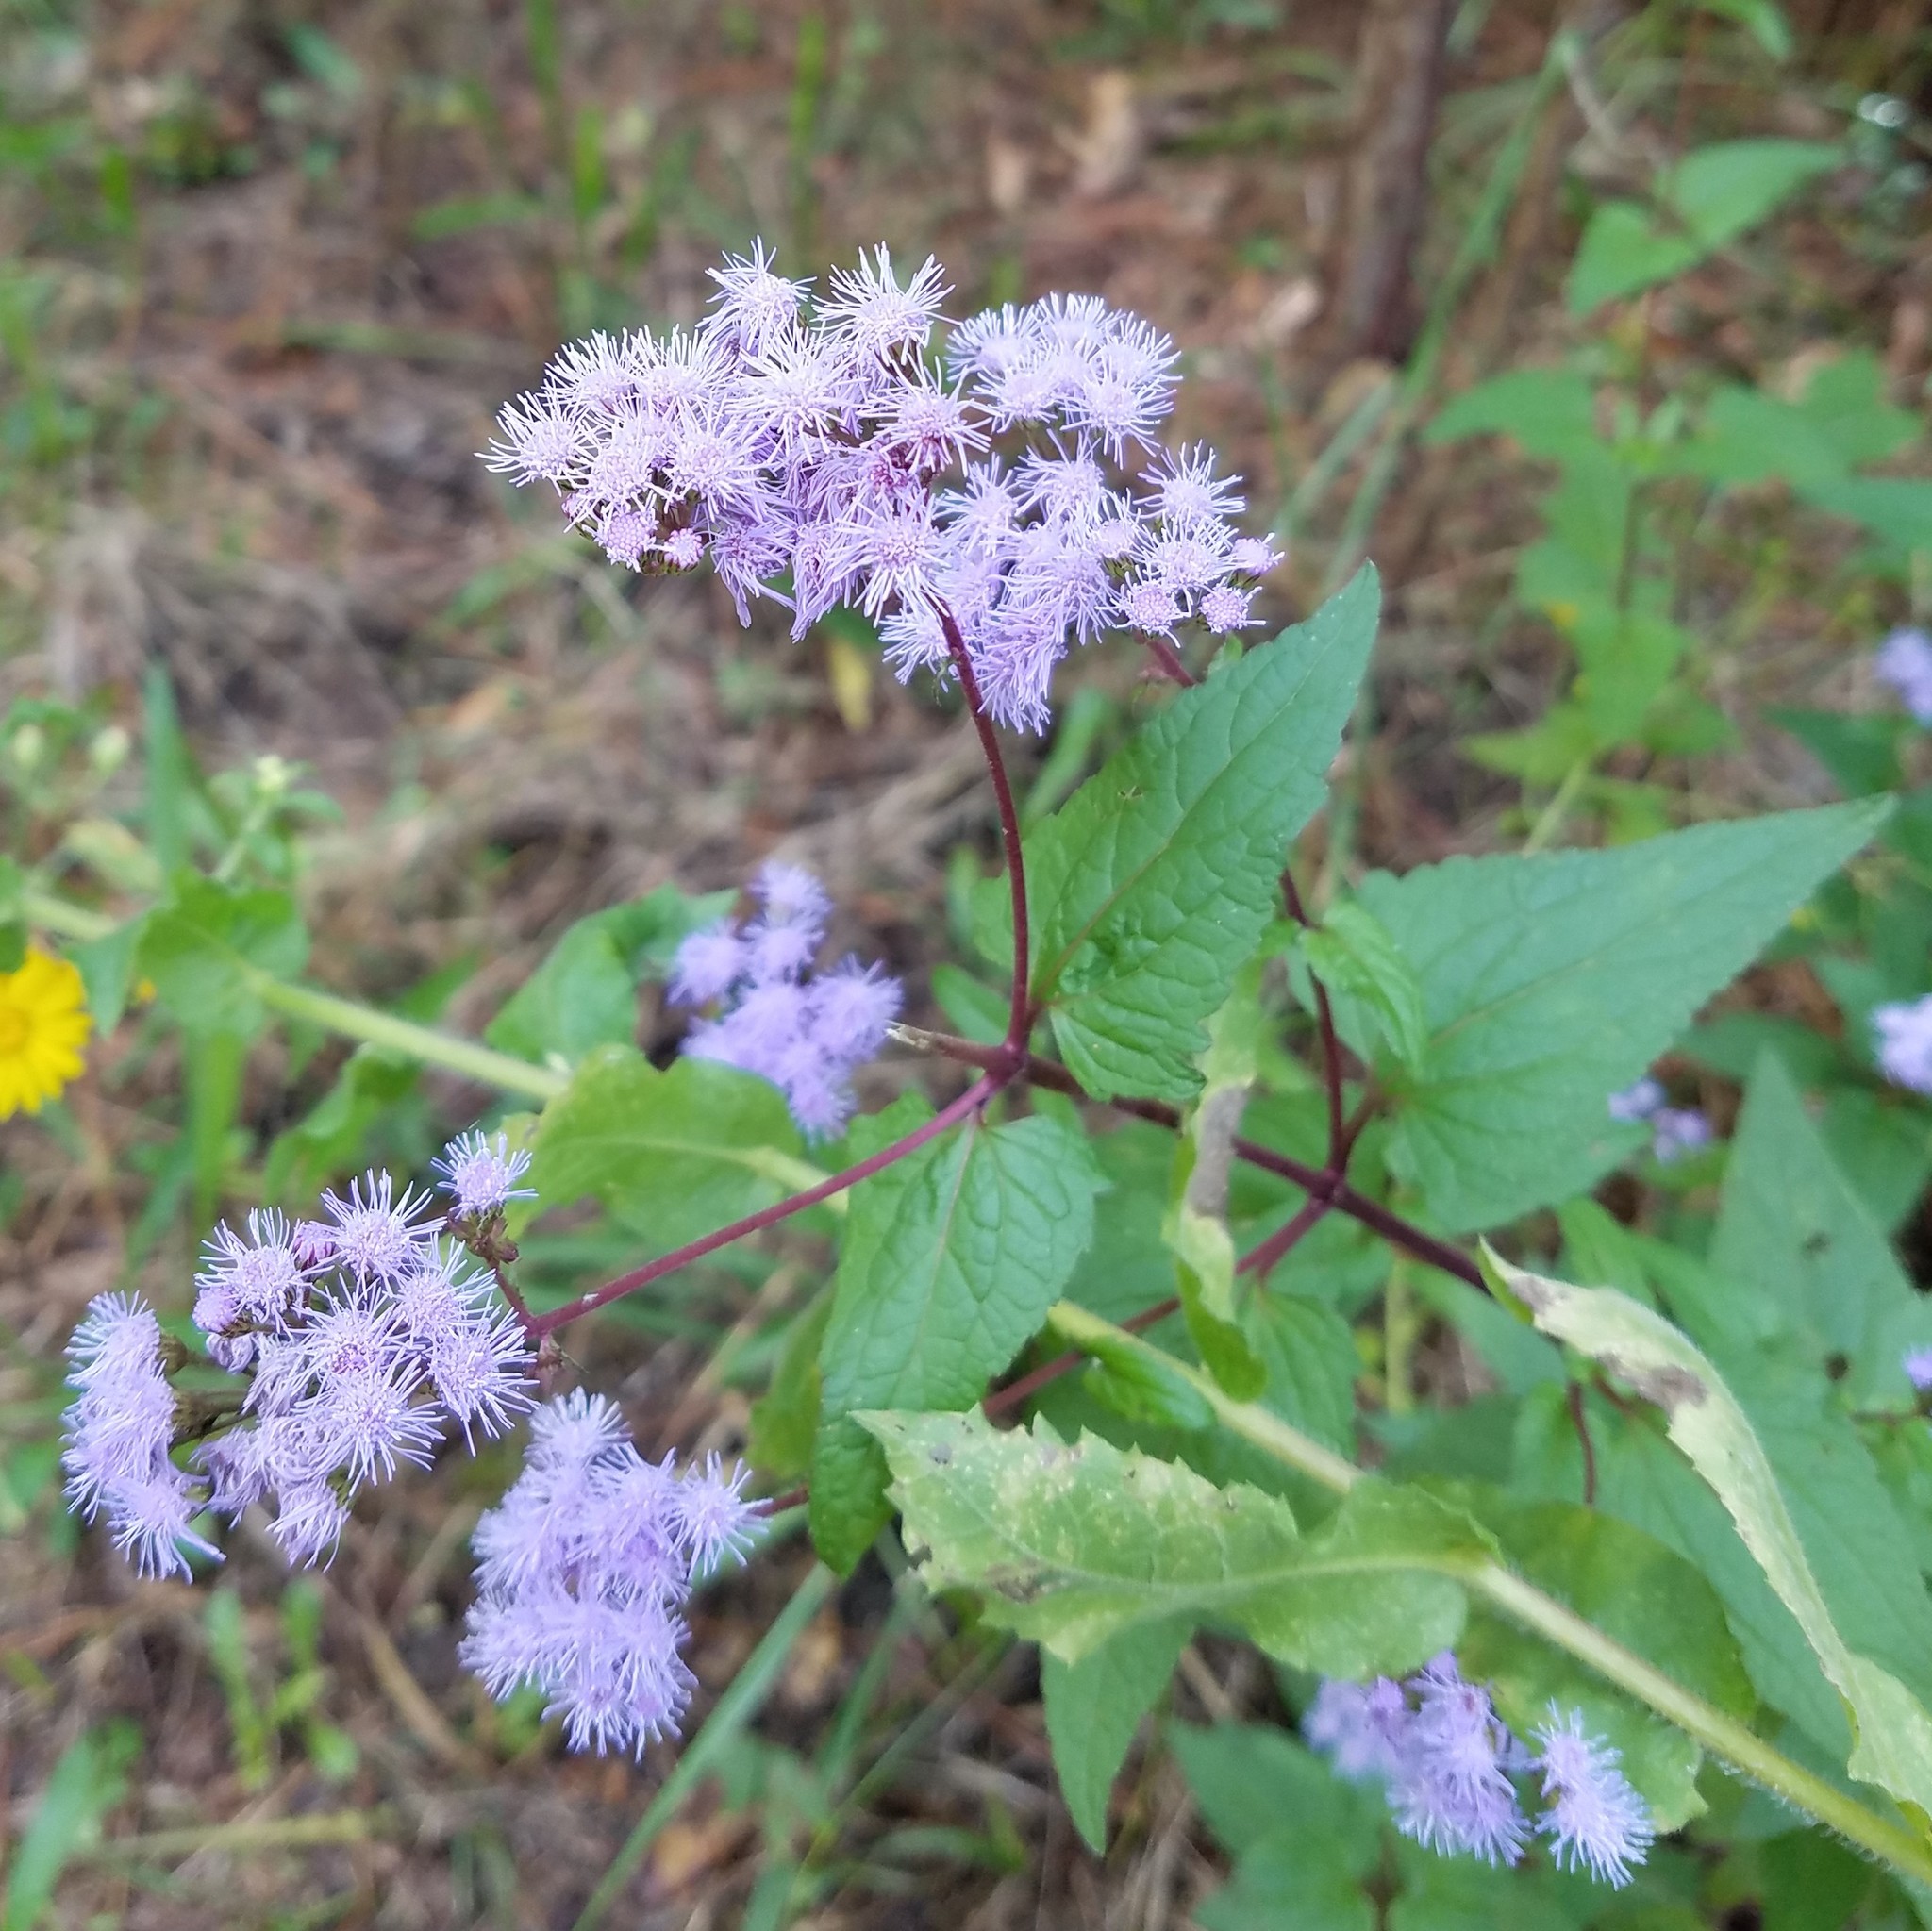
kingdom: Plantae
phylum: Tracheophyta
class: Magnoliopsida
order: Asterales
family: Asteraceae
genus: Conoclinium
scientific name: Conoclinium coelestinum
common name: Blue mistflower
